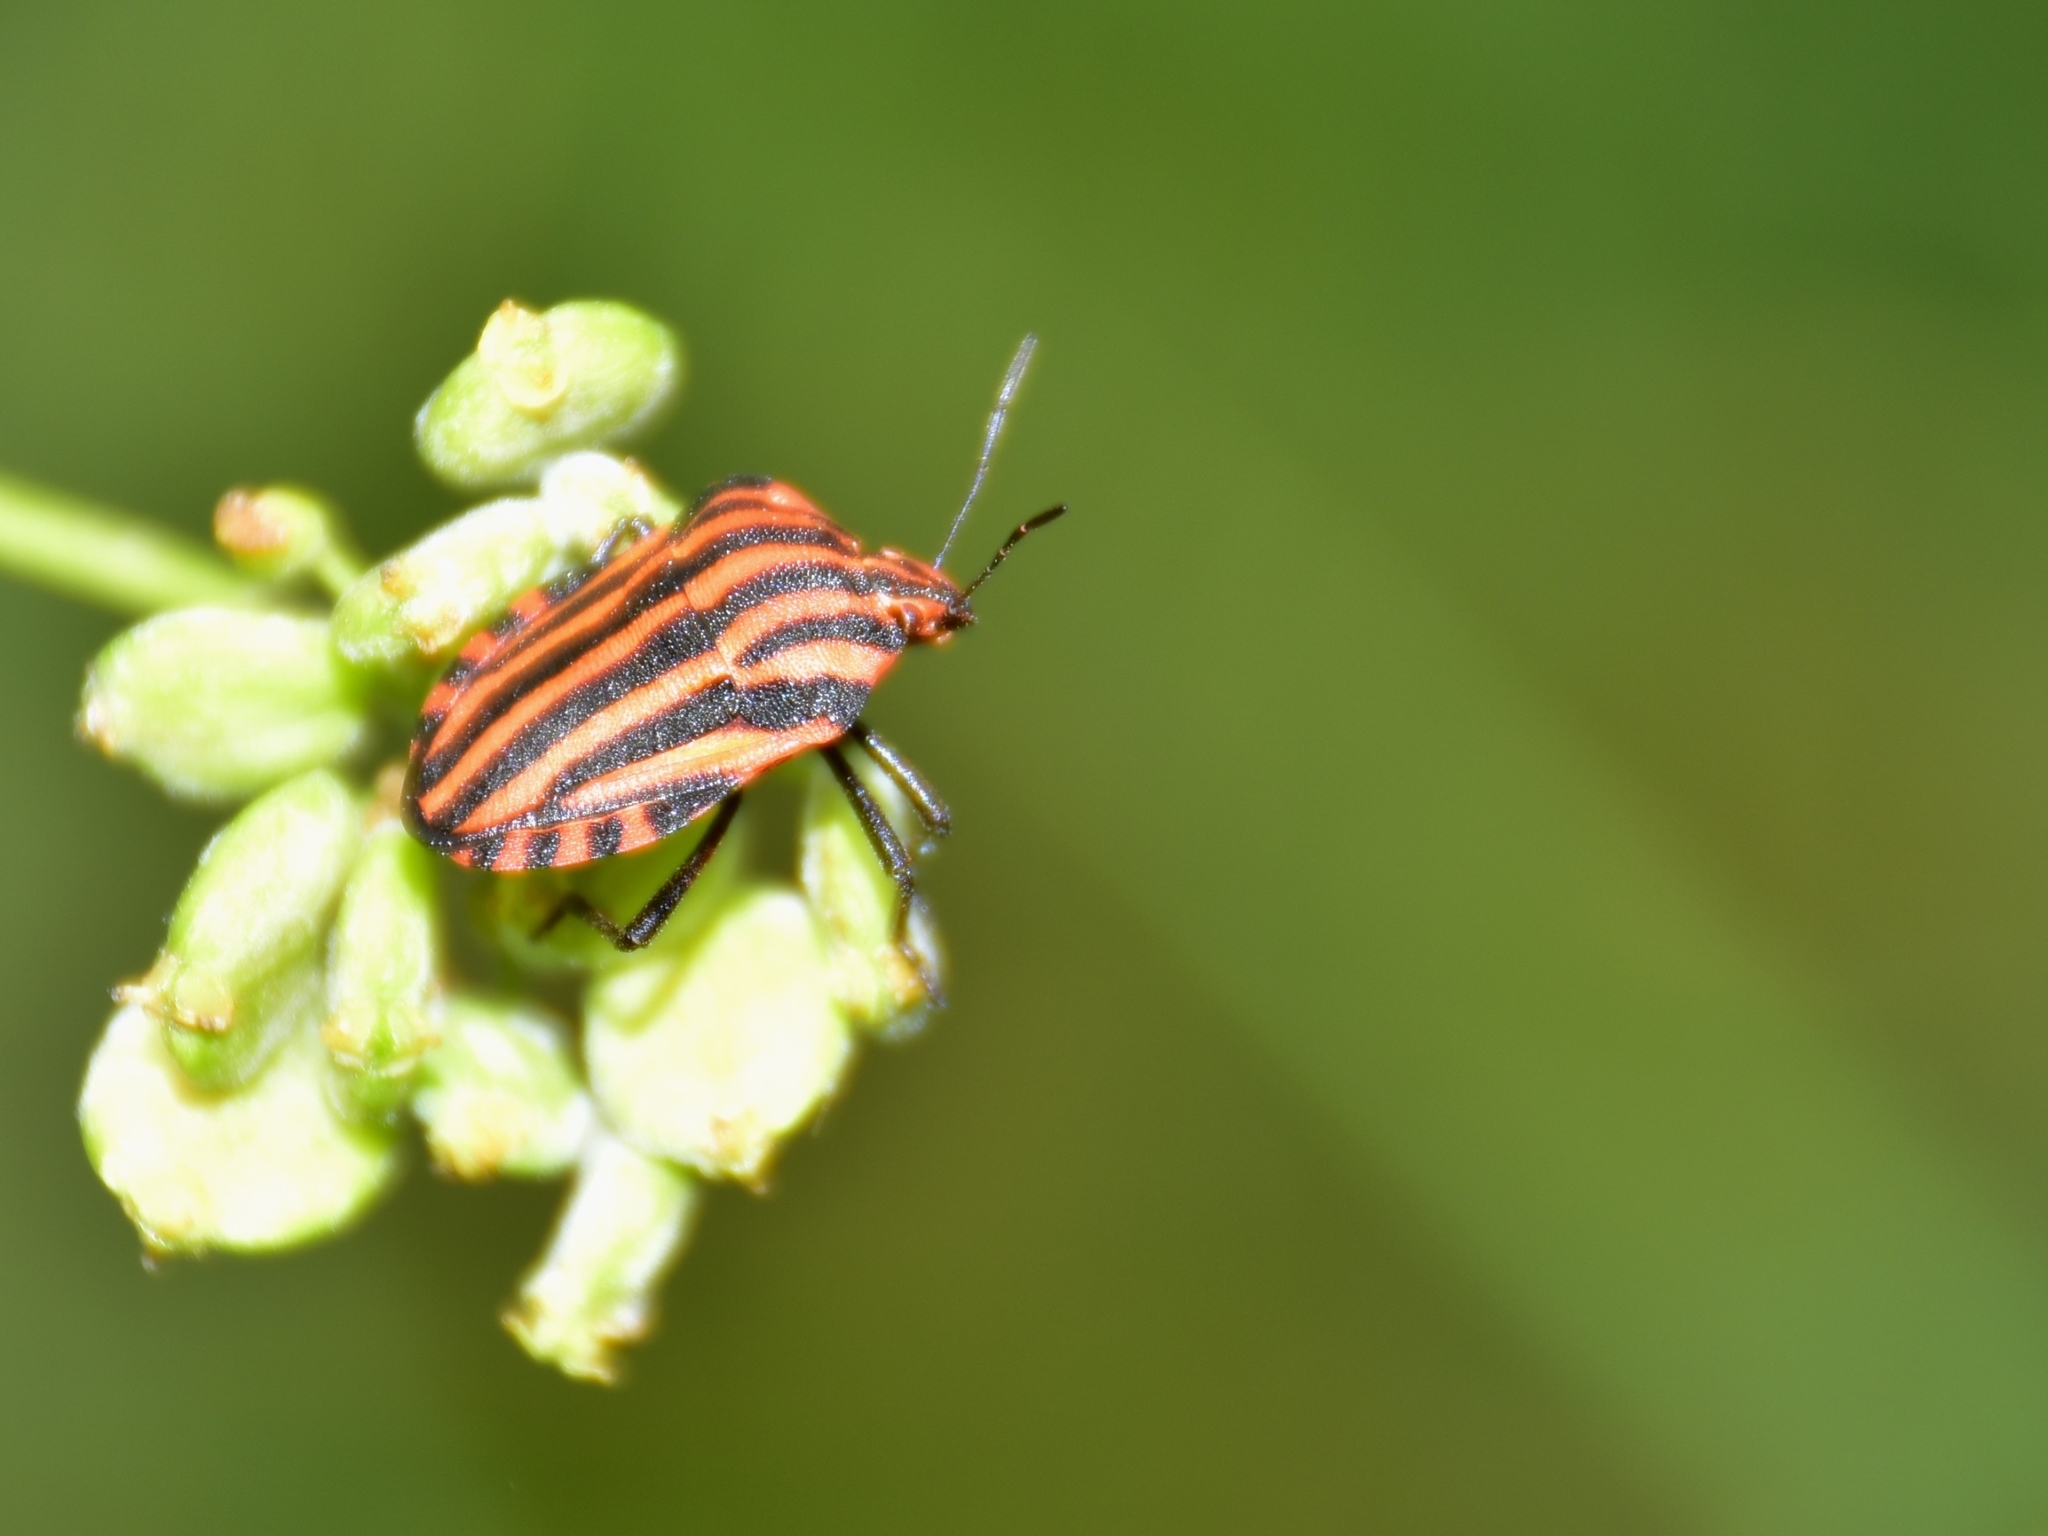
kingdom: Animalia
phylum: Arthropoda
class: Insecta
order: Hemiptera
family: Pentatomidae
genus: Graphosoma
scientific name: Graphosoma italicum
